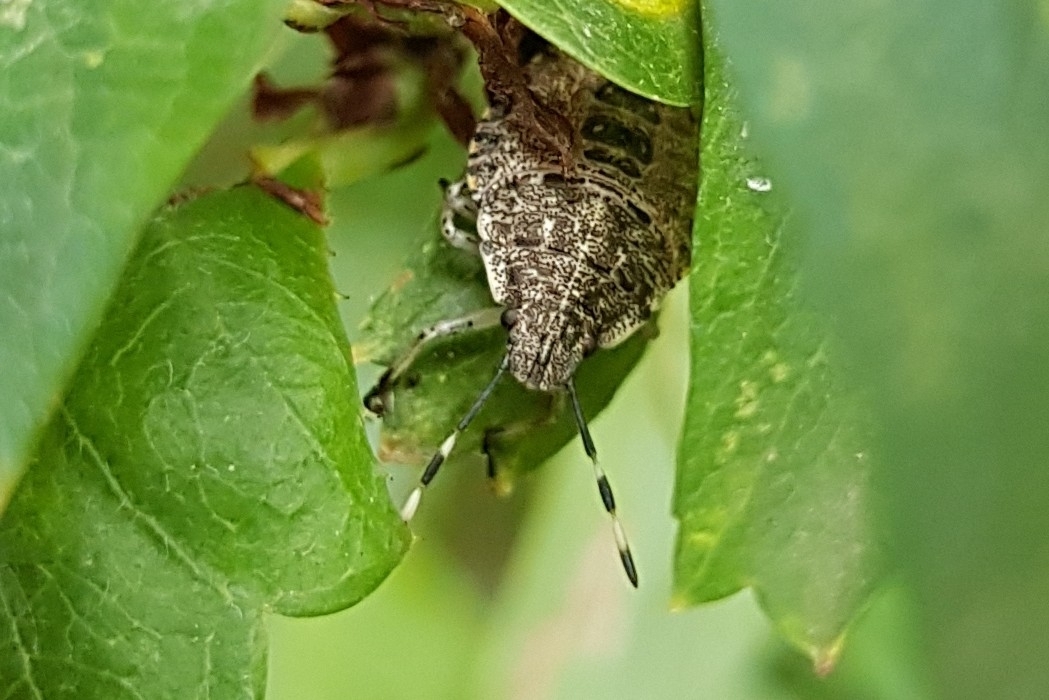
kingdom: Animalia
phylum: Arthropoda
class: Insecta
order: Hemiptera
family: Pentatomidae
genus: Rhaphigaster
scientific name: Rhaphigaster nebulosa
